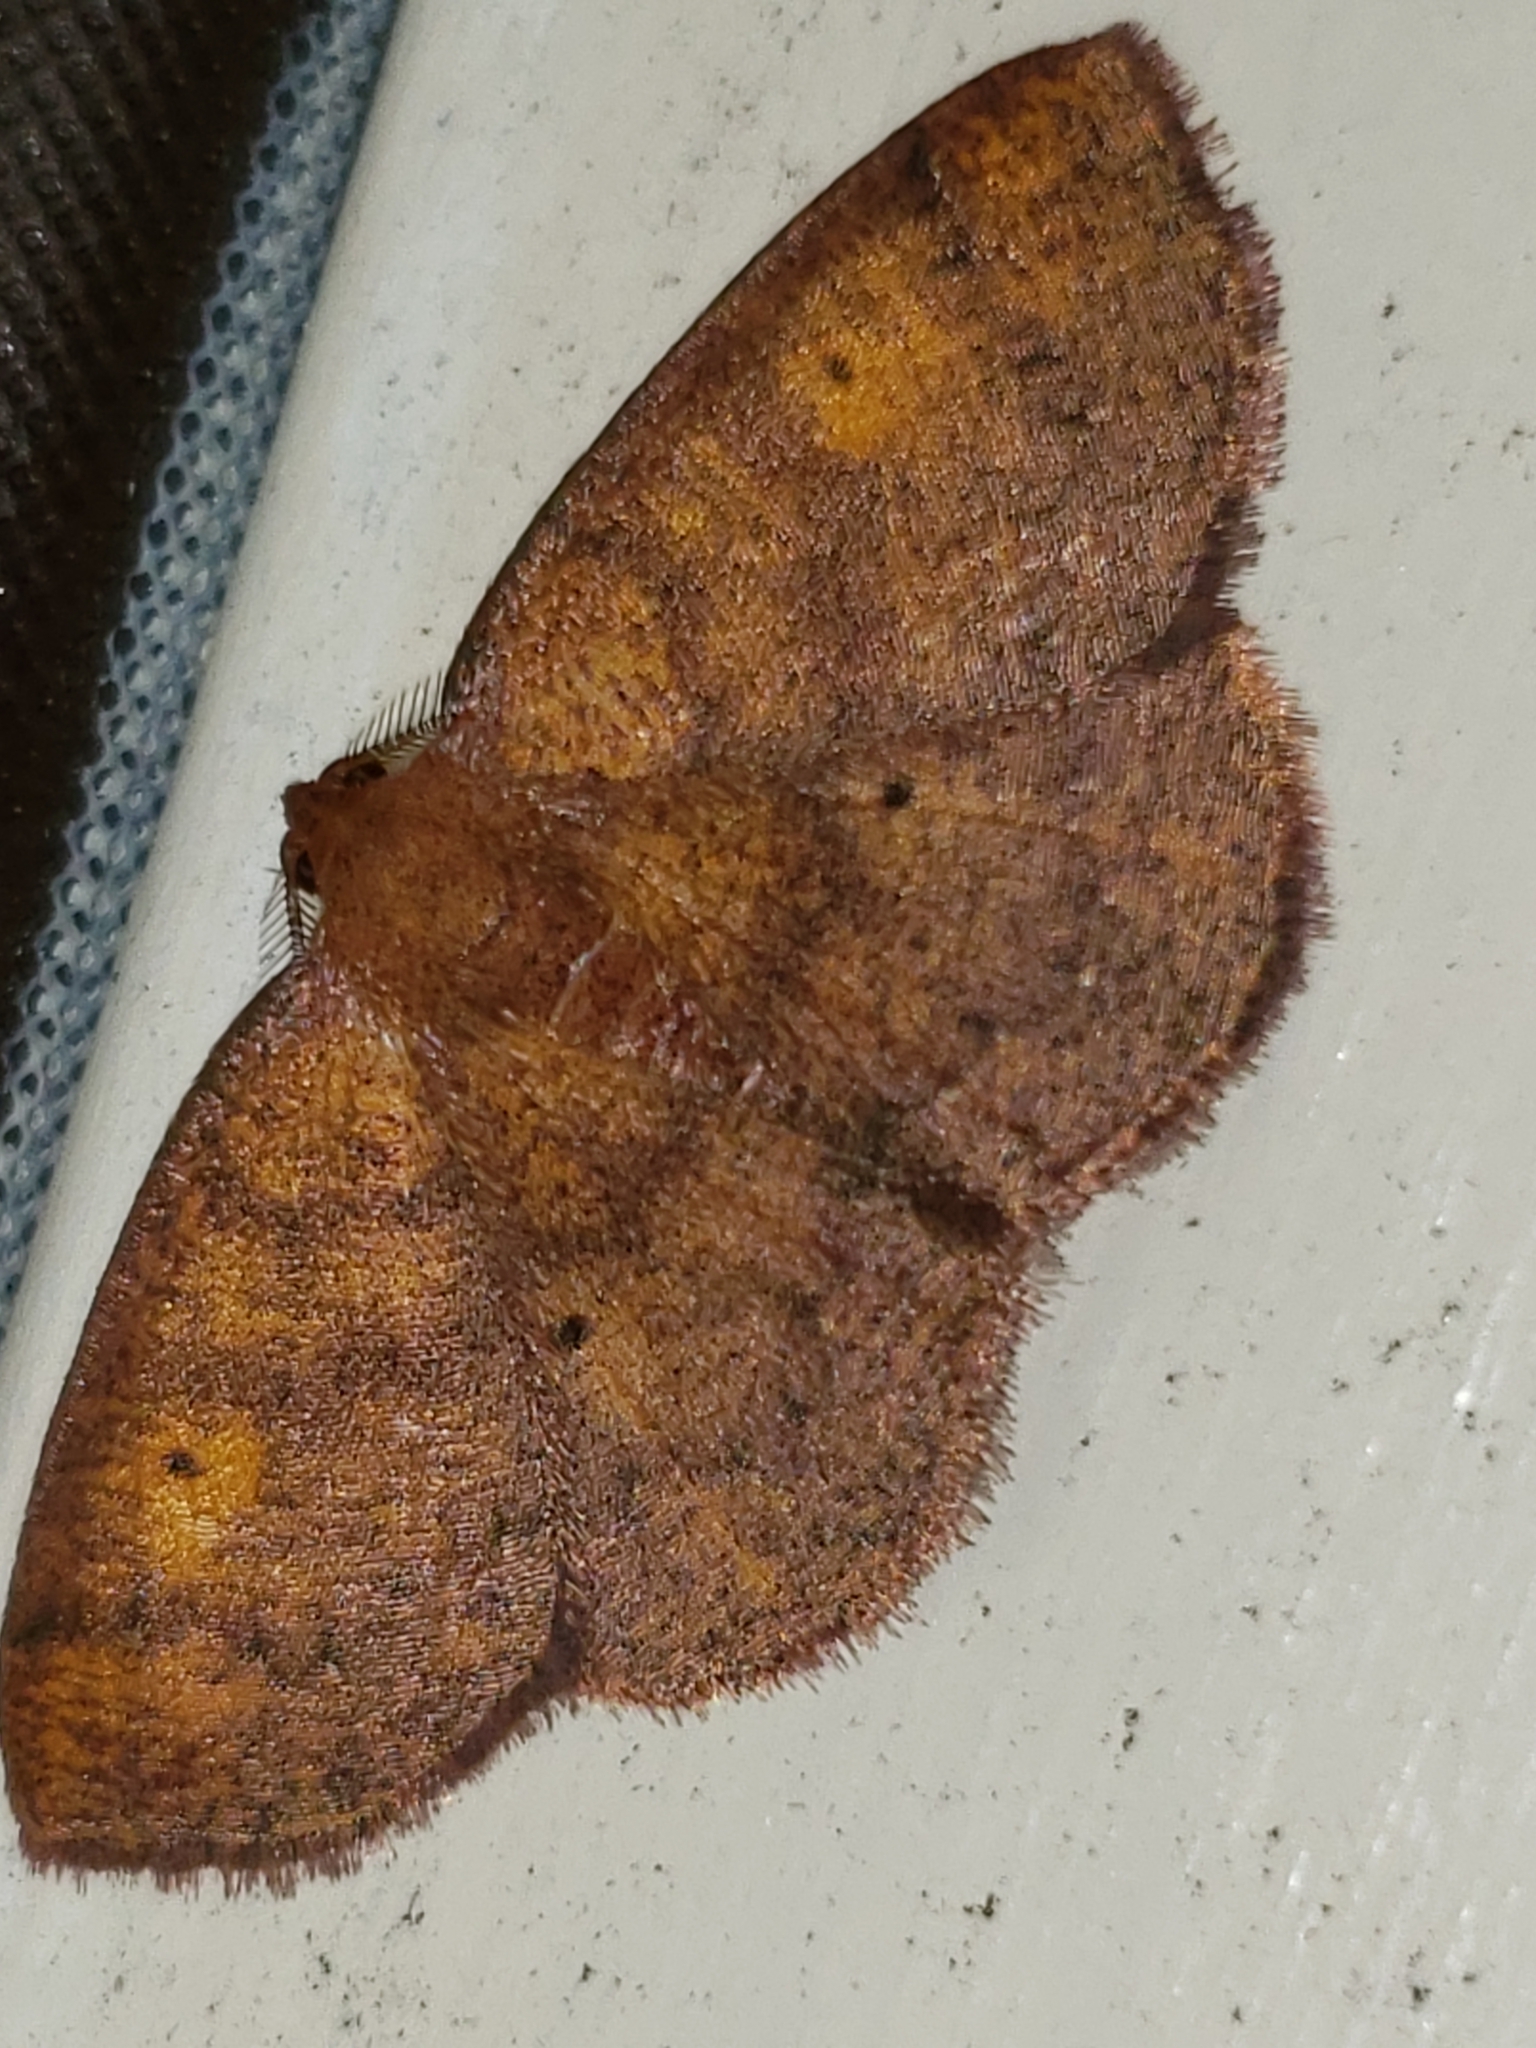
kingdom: Animalia
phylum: Arthropoda
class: Insecta
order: Lepidoptera
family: Geometridae
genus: Ilexia
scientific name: Ilexia intractata
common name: Black-dotted ruddy moth
